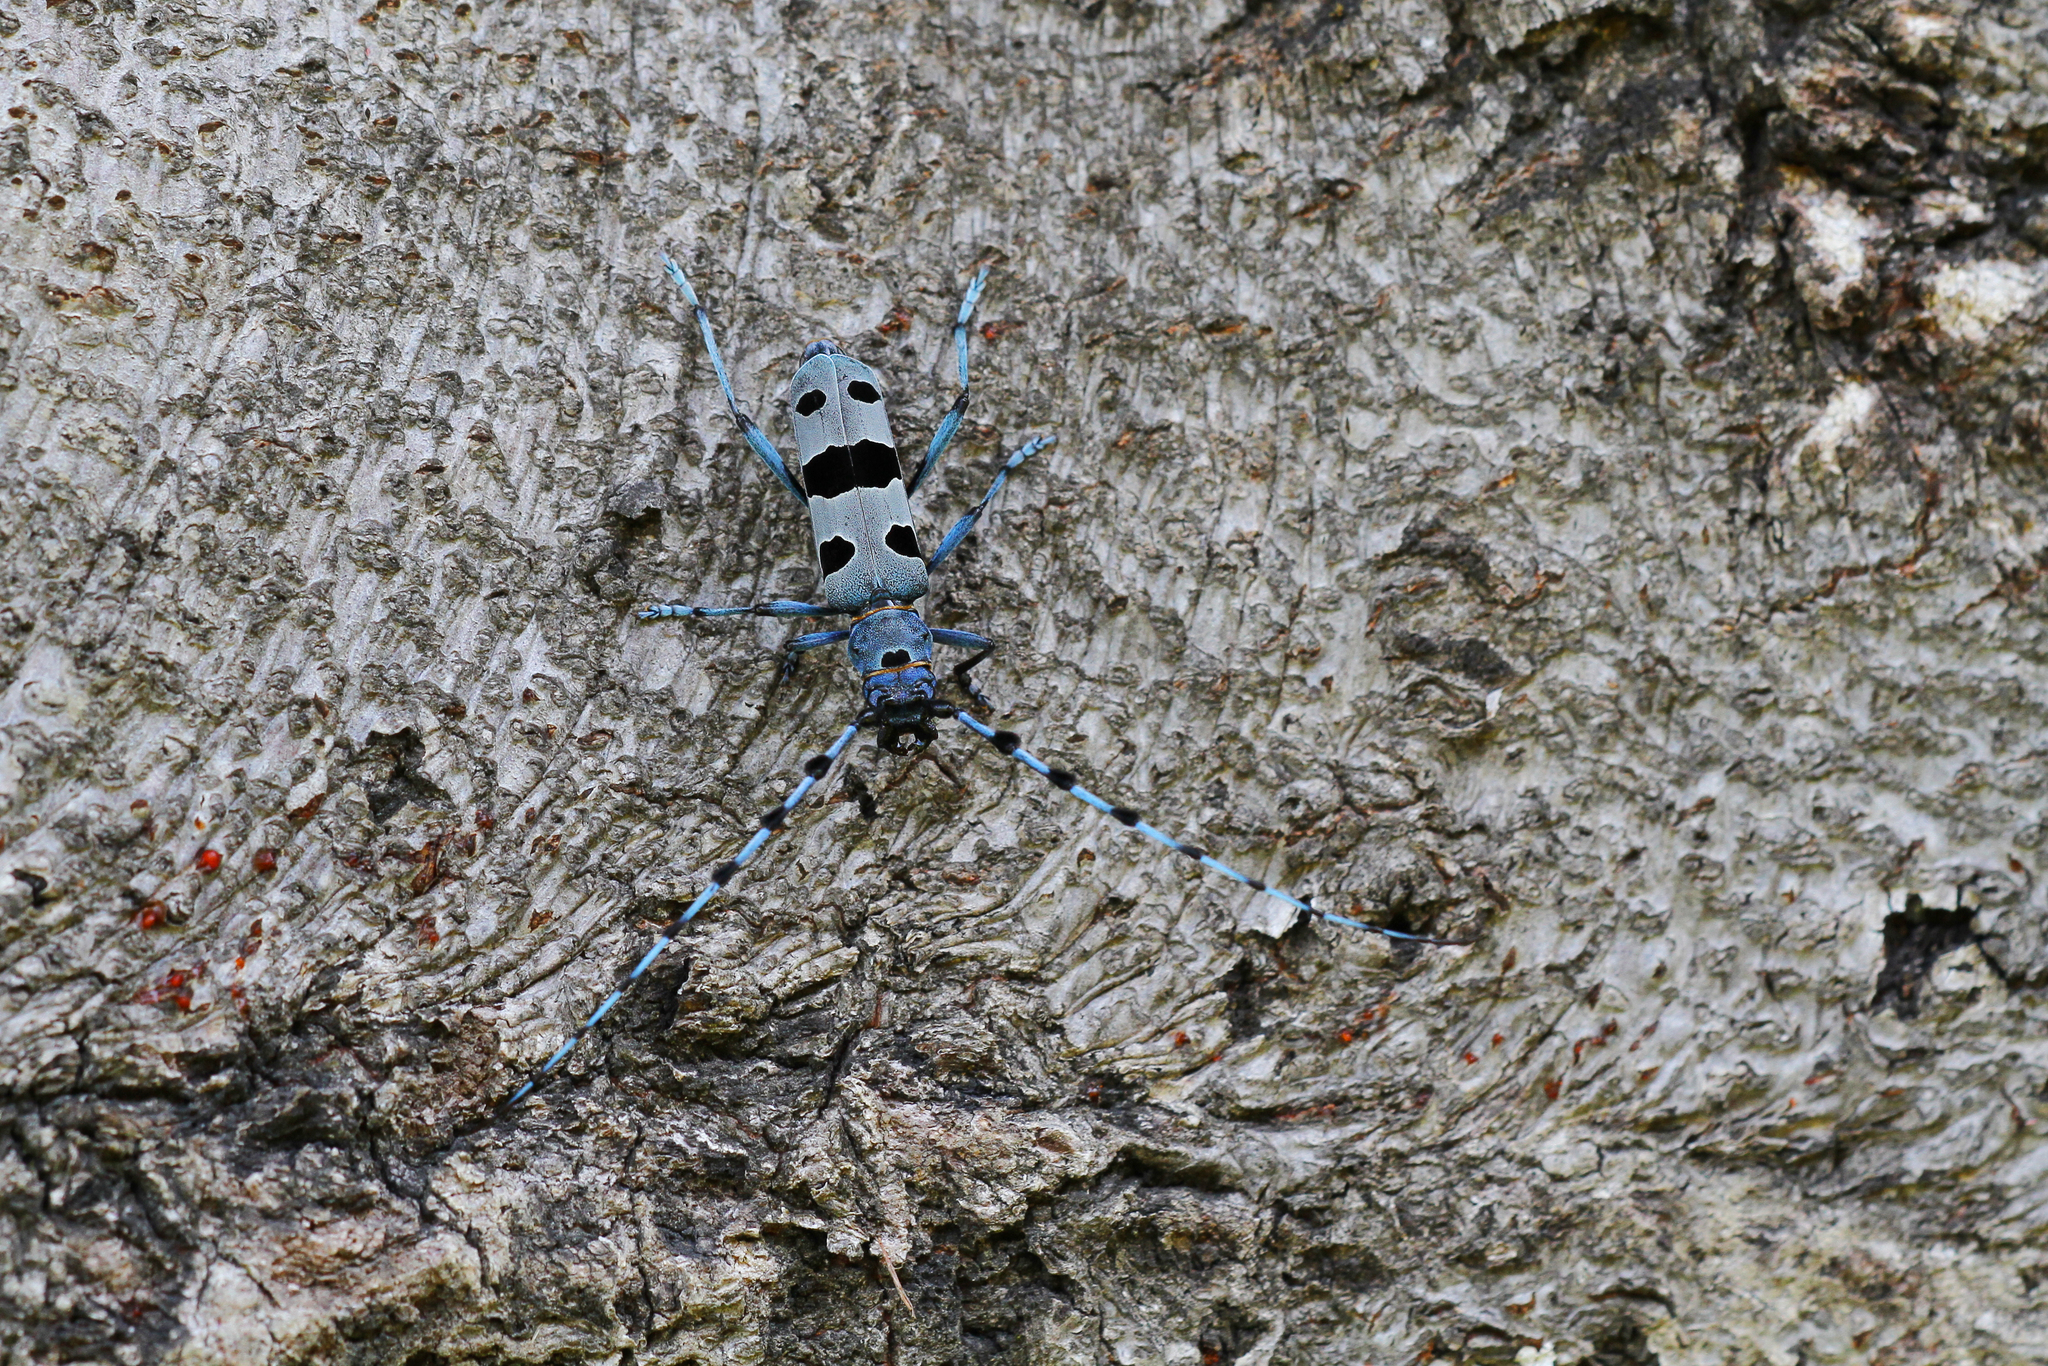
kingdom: Animalia
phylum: Arthropoda
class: Insecta
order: Coleoptera
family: Cerambycidae
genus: Rosalia
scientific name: Rosalia alpina
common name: Rosalia longicorn
